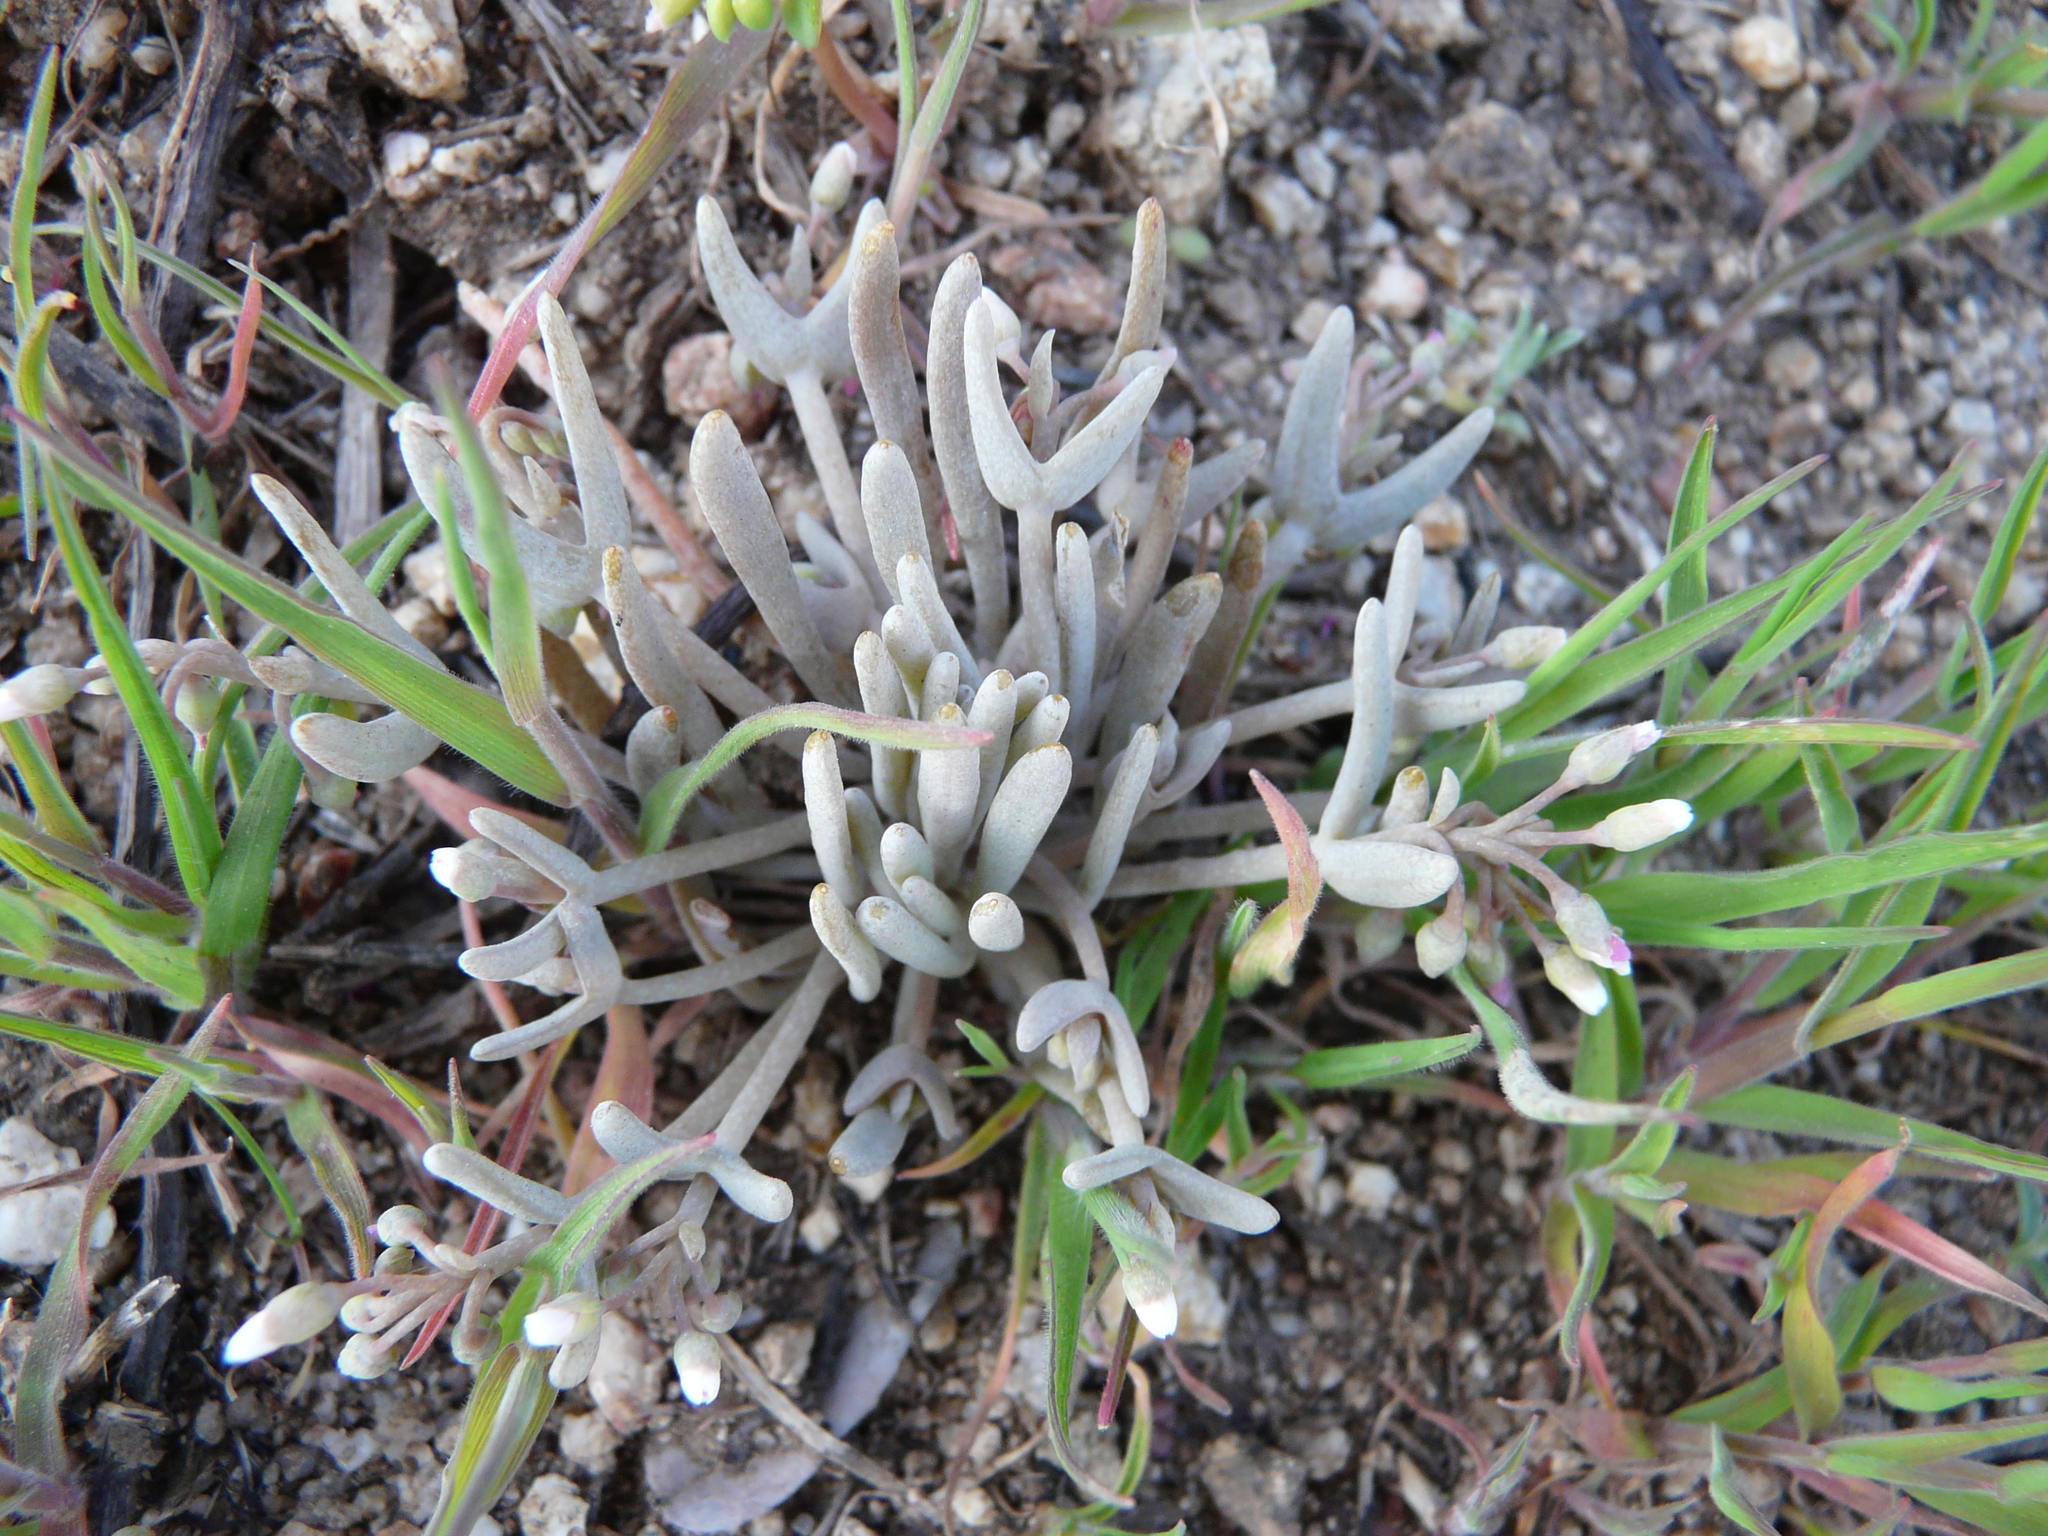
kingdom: Plantae
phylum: Tracheophyta
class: Magnoliopsida
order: Caryophyllales
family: Montiaceae
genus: Claytonia
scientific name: Claytonia exigua
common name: Pale spring beauty
